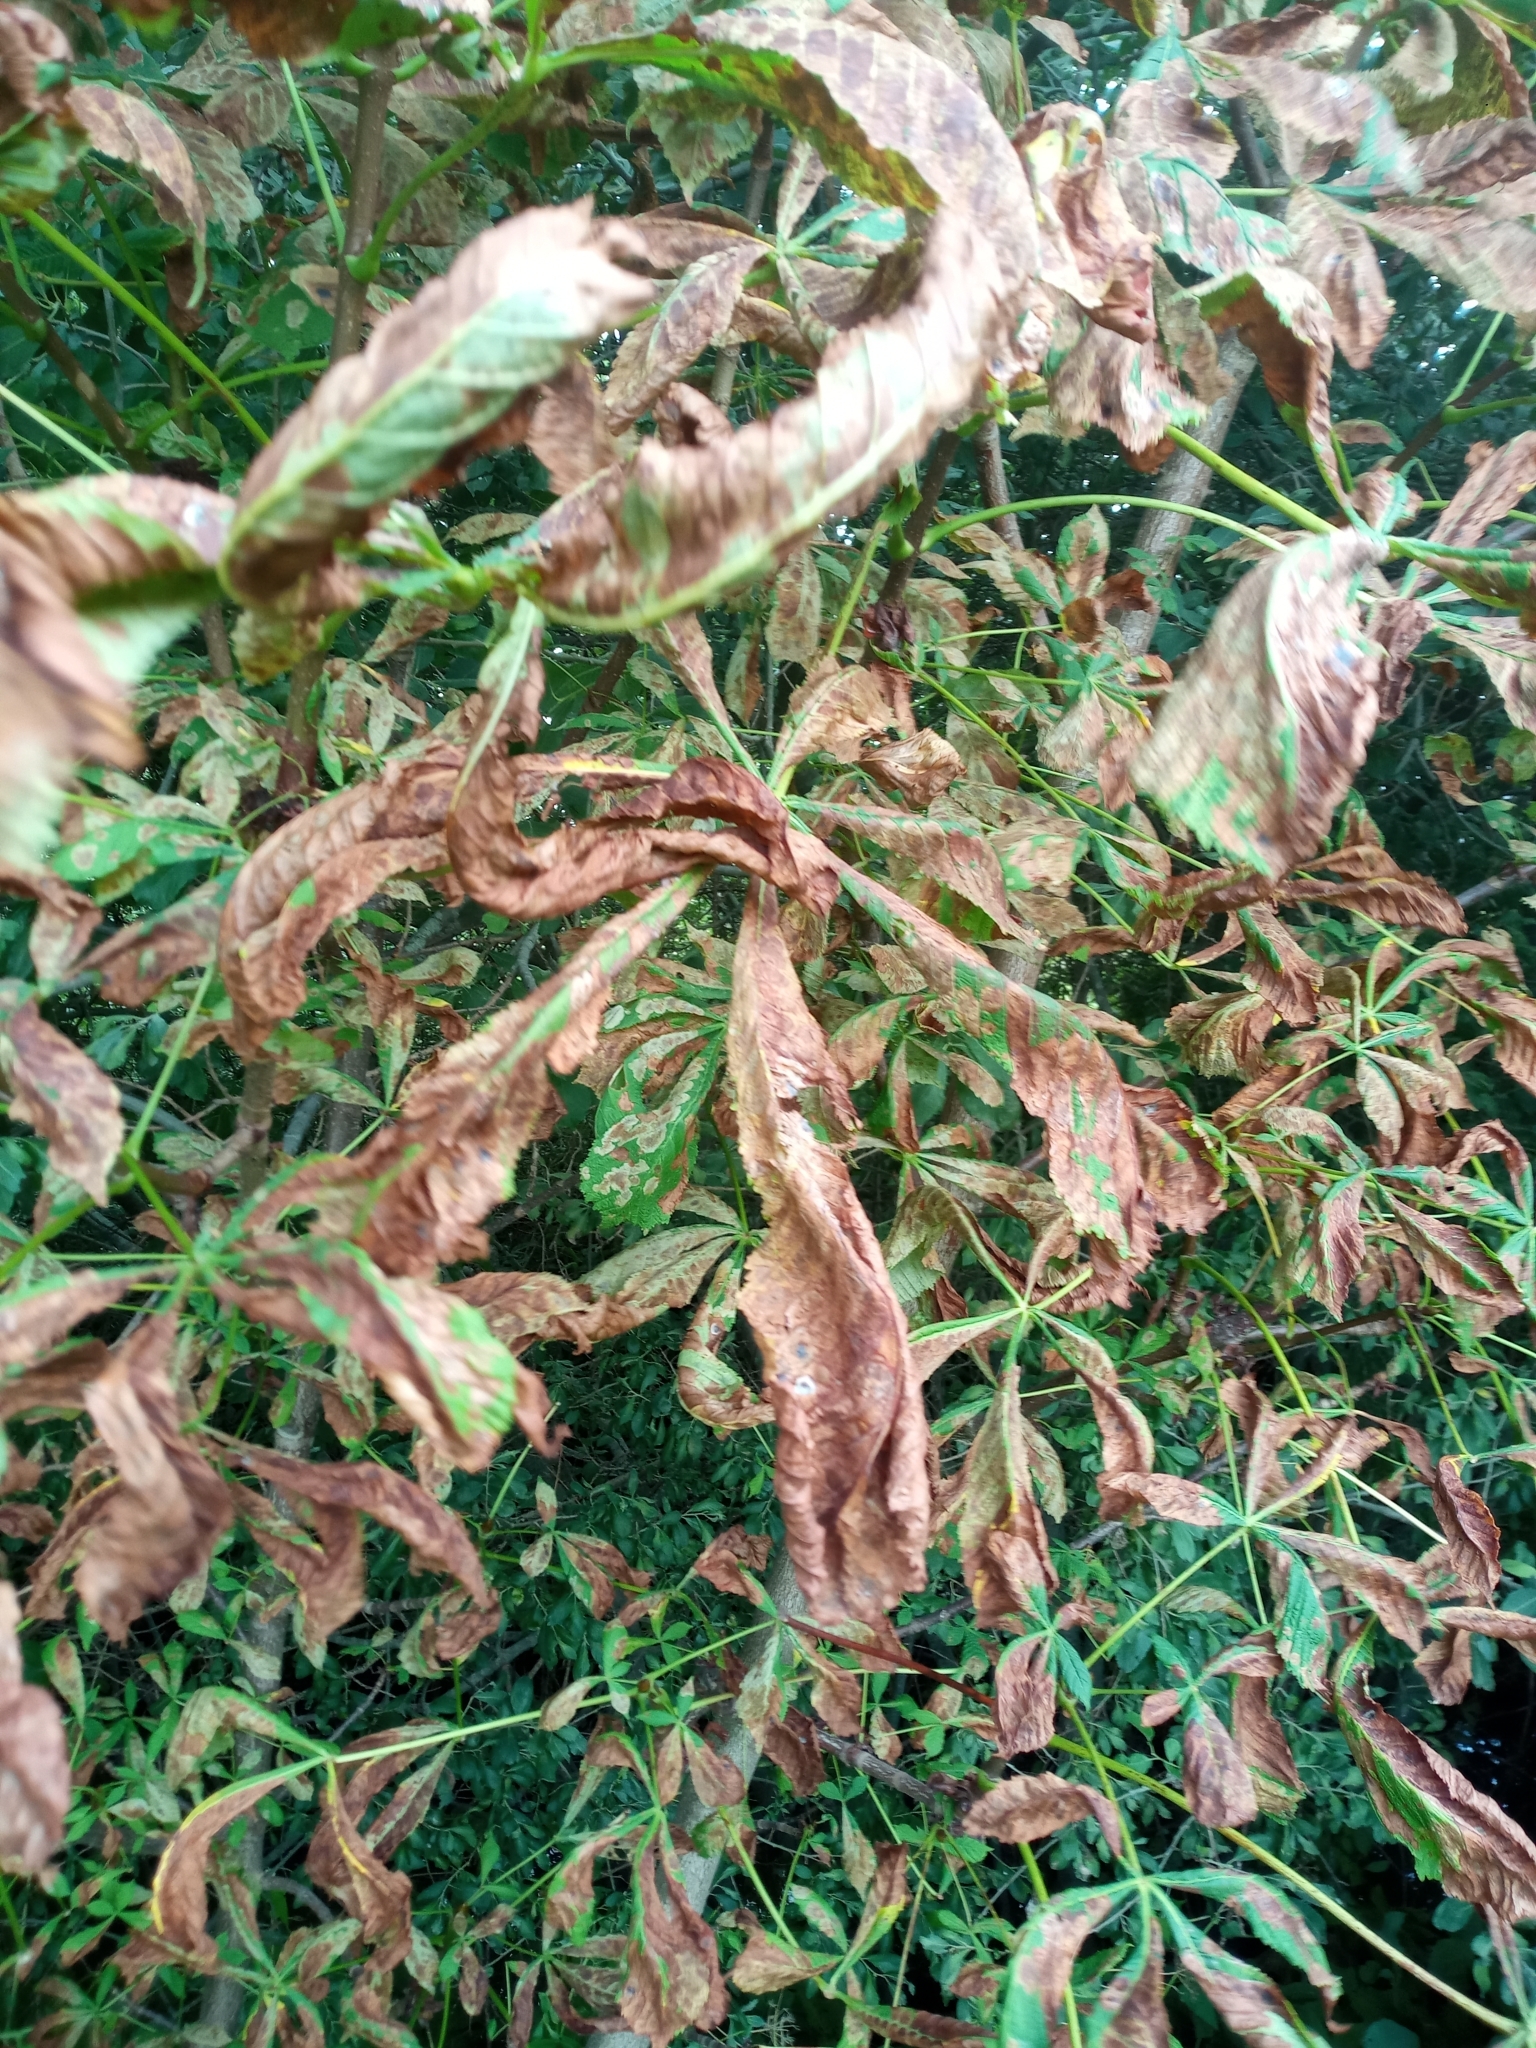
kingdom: Animalia
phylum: Arthropoda
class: Insecta
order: Lepidoptera
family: Gracillariidae
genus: Cameraria
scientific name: Cameraria ohridella
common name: Horse-chestnut leaf-miner
